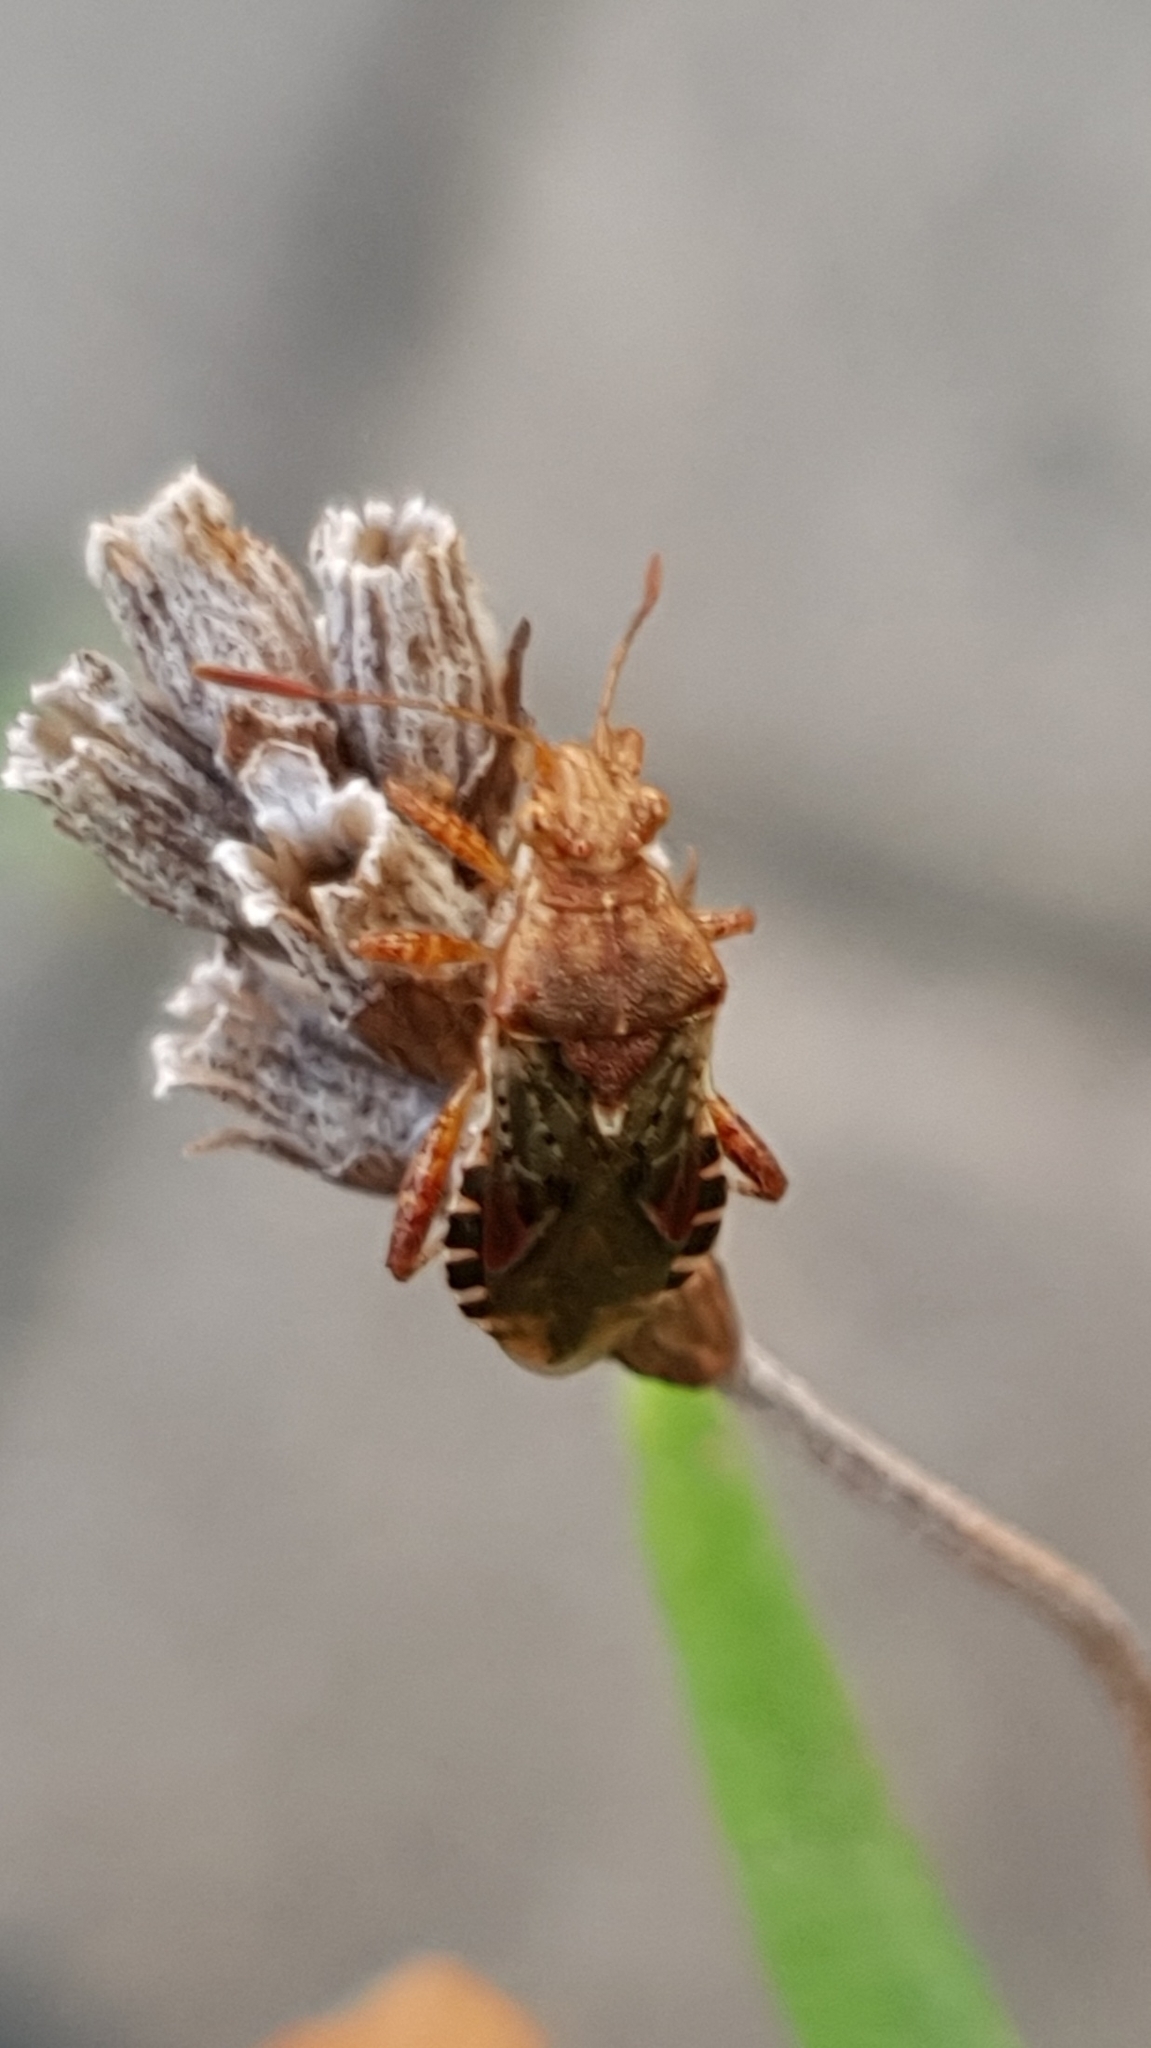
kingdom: Animalia
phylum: Arthropoda
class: Insecta
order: Hemiptera
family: Rhopalidae
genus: Rhopalus
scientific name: Rhopalus subrufus
